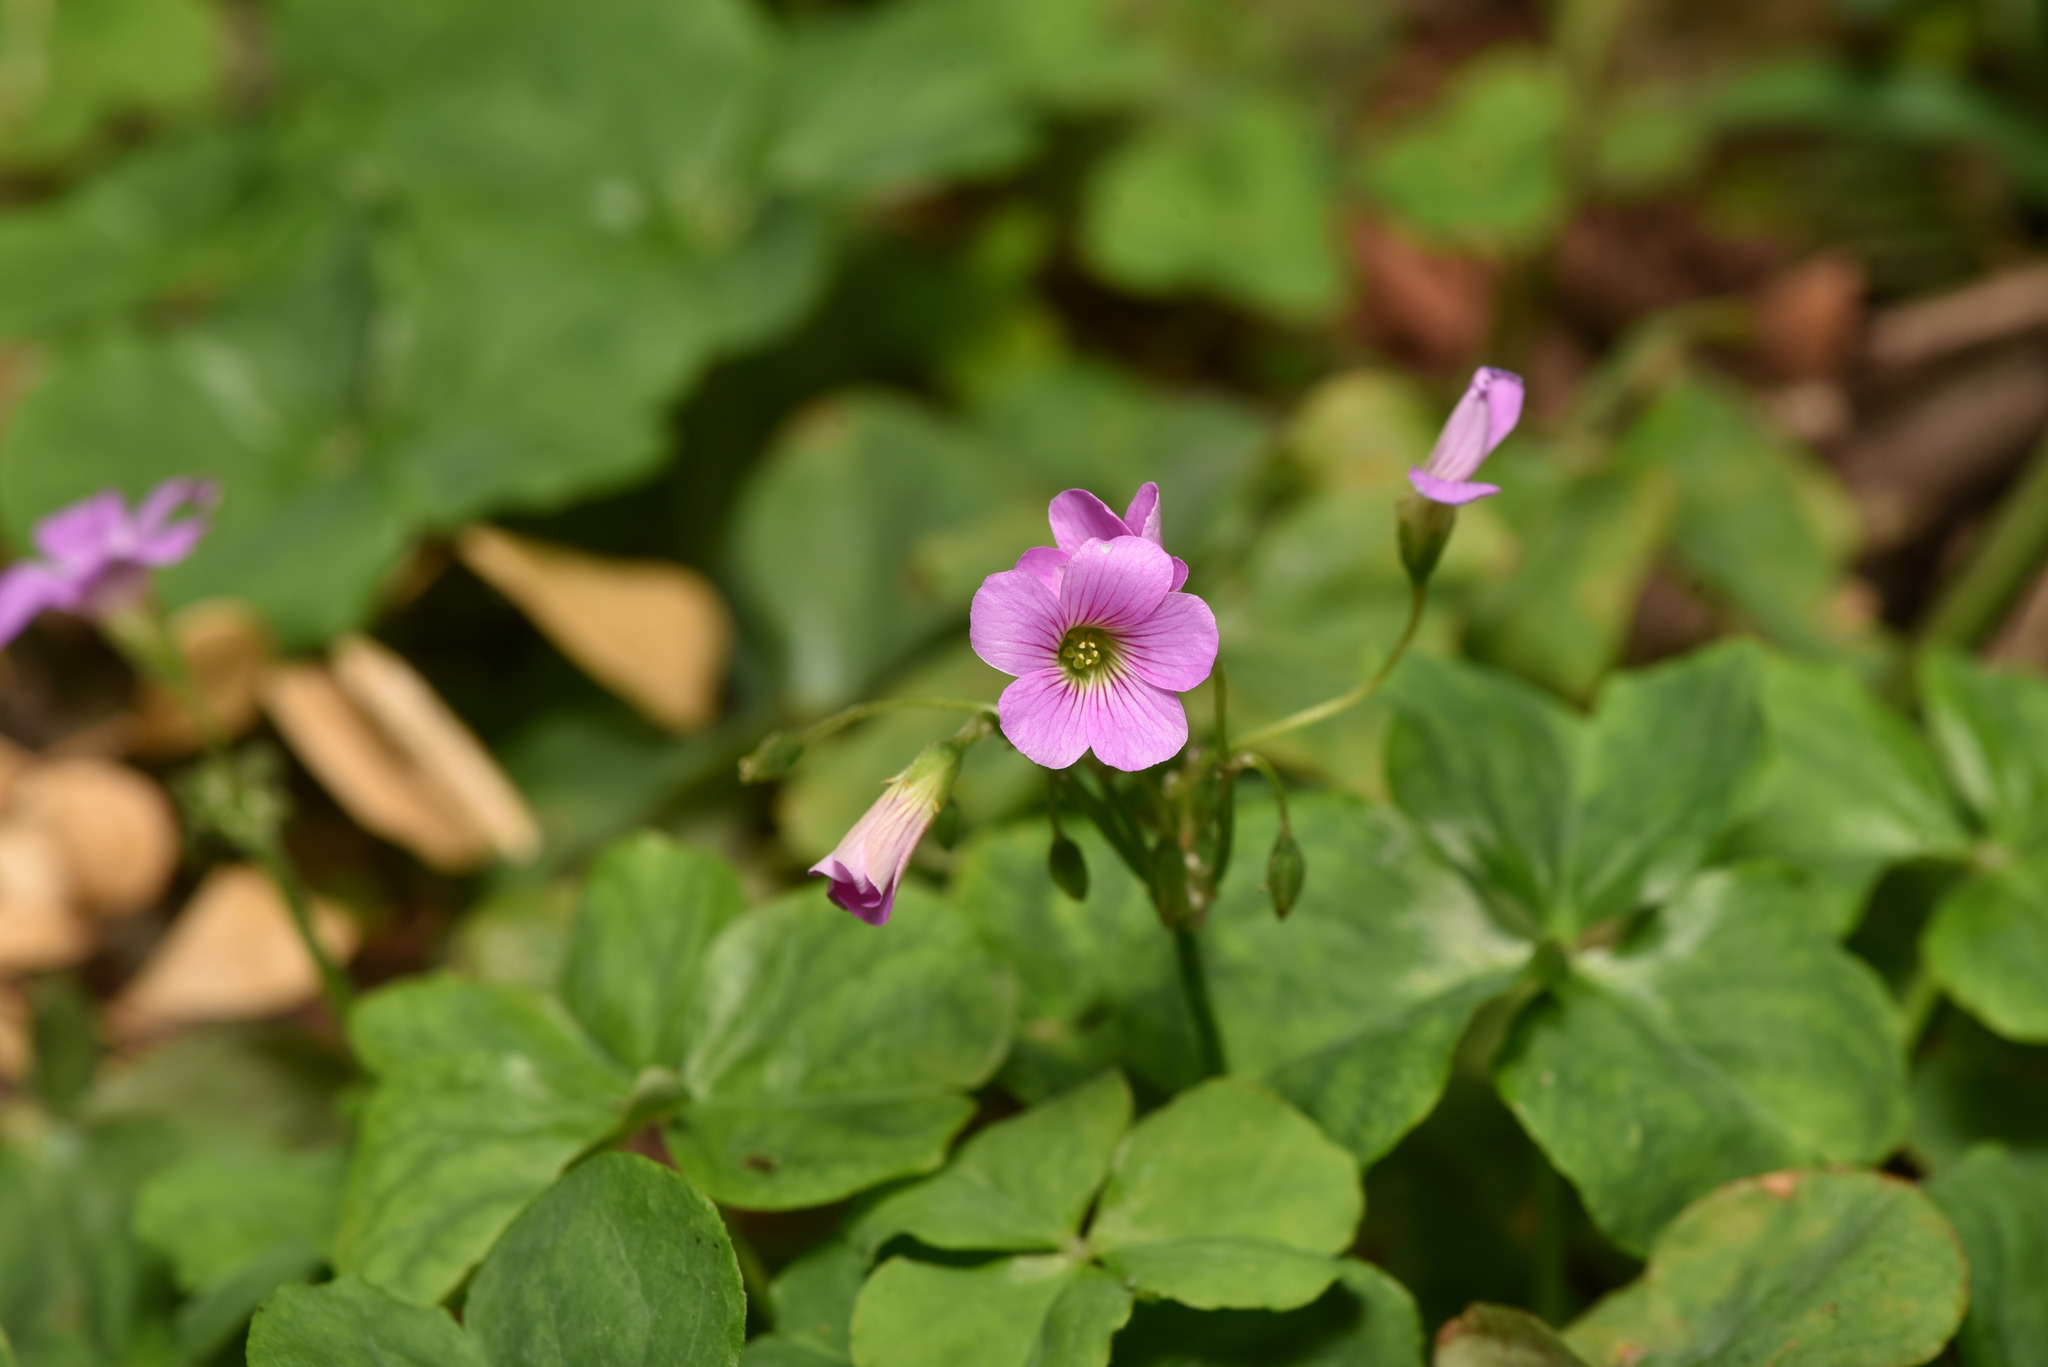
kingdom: Plantae
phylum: Tracheophyta
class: Magnoliopsida
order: Oxalidales
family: Oxalidaceae
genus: Oxalis
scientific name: Oxalis debilis
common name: Large-flowered pink-sorrel
